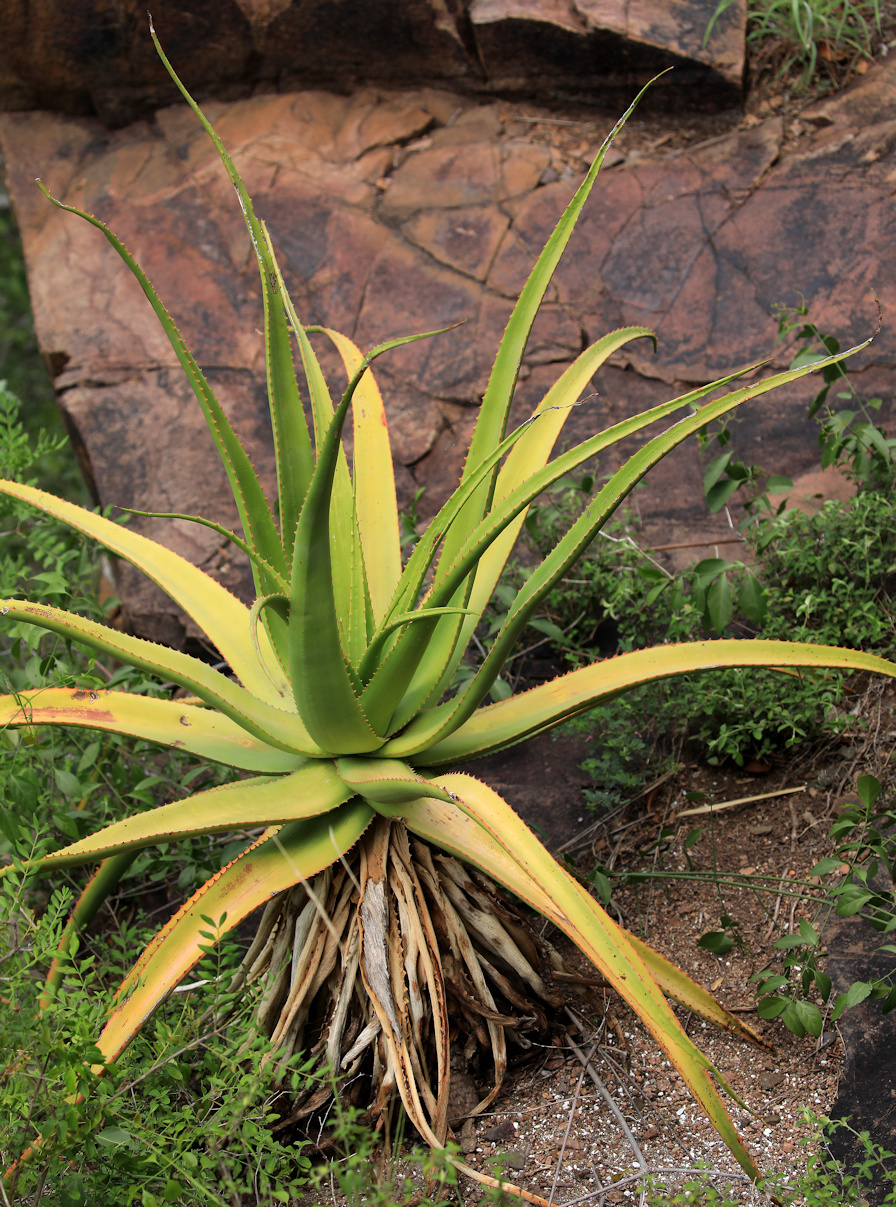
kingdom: Plantae
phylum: Tracheophyta
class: Liliopsida
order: Asparagales
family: Asphodelaceae
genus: Aloe
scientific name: Aloe spicata
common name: Gazaland aloe
